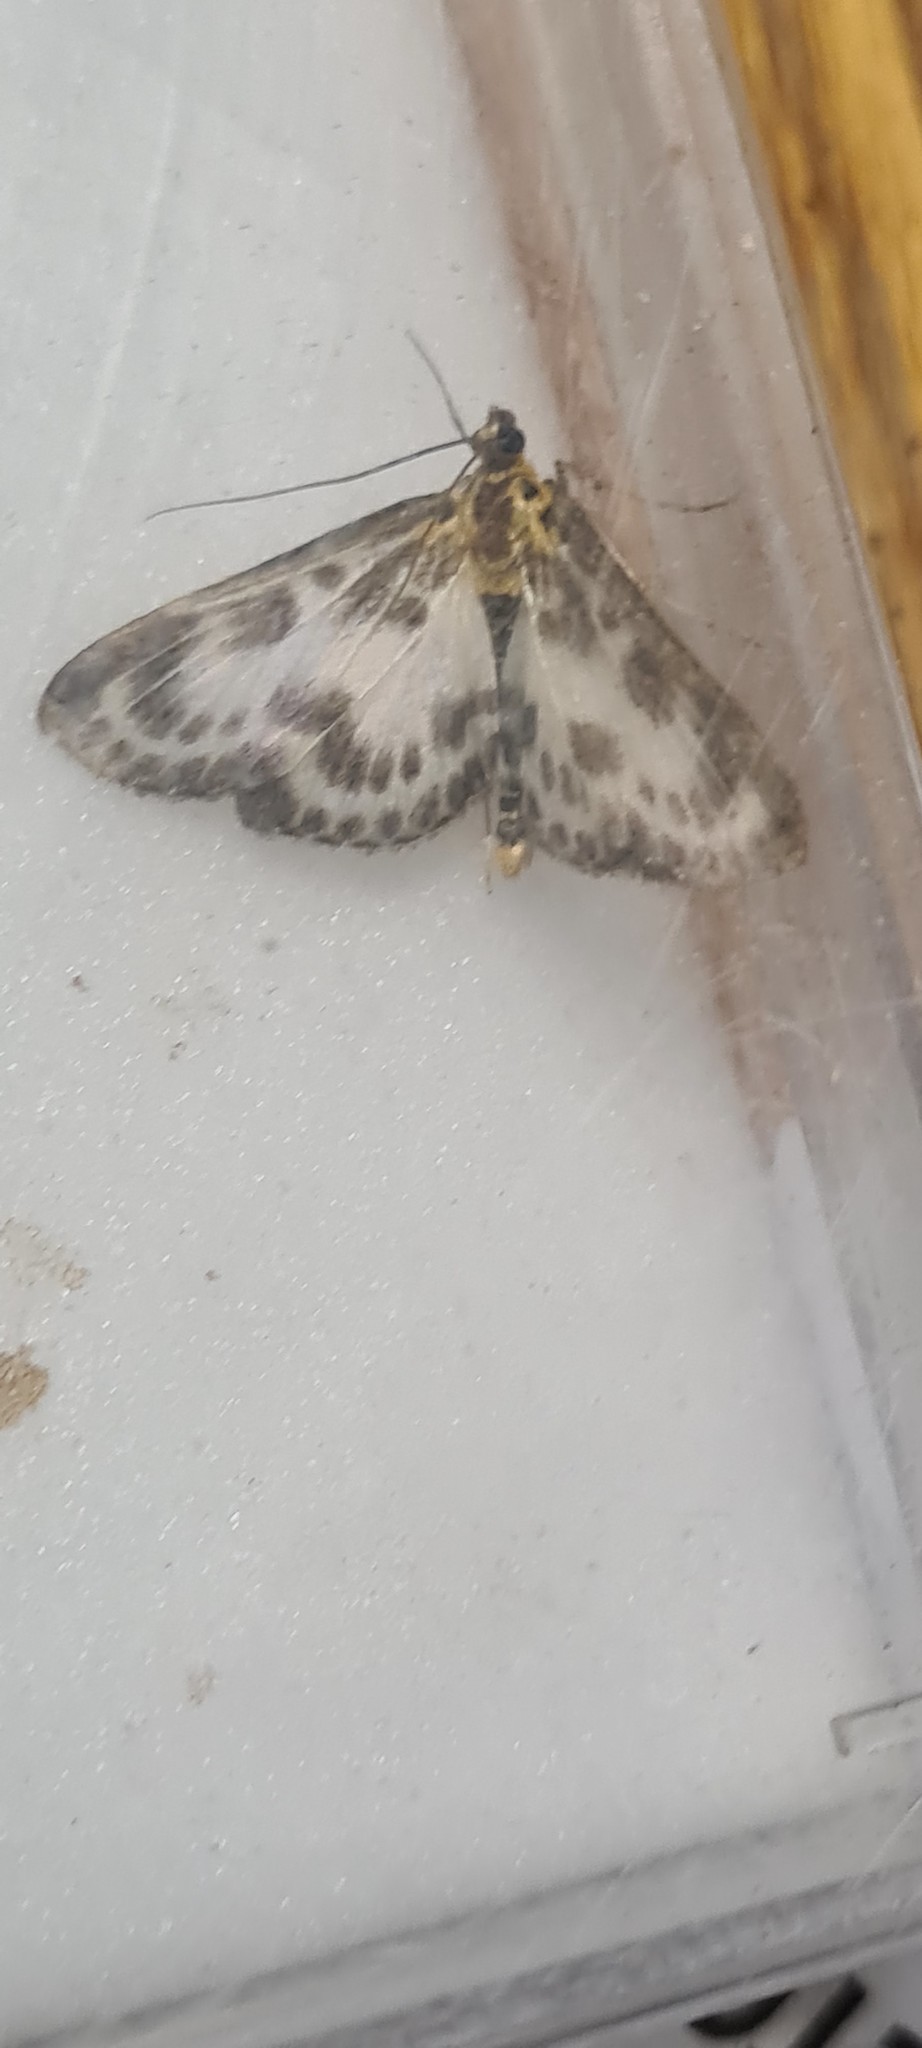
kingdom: Animalia
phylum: Arthropoda
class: Insecta
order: Lepidoptera
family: Crambidae
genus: Anania
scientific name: Anania hortulata
